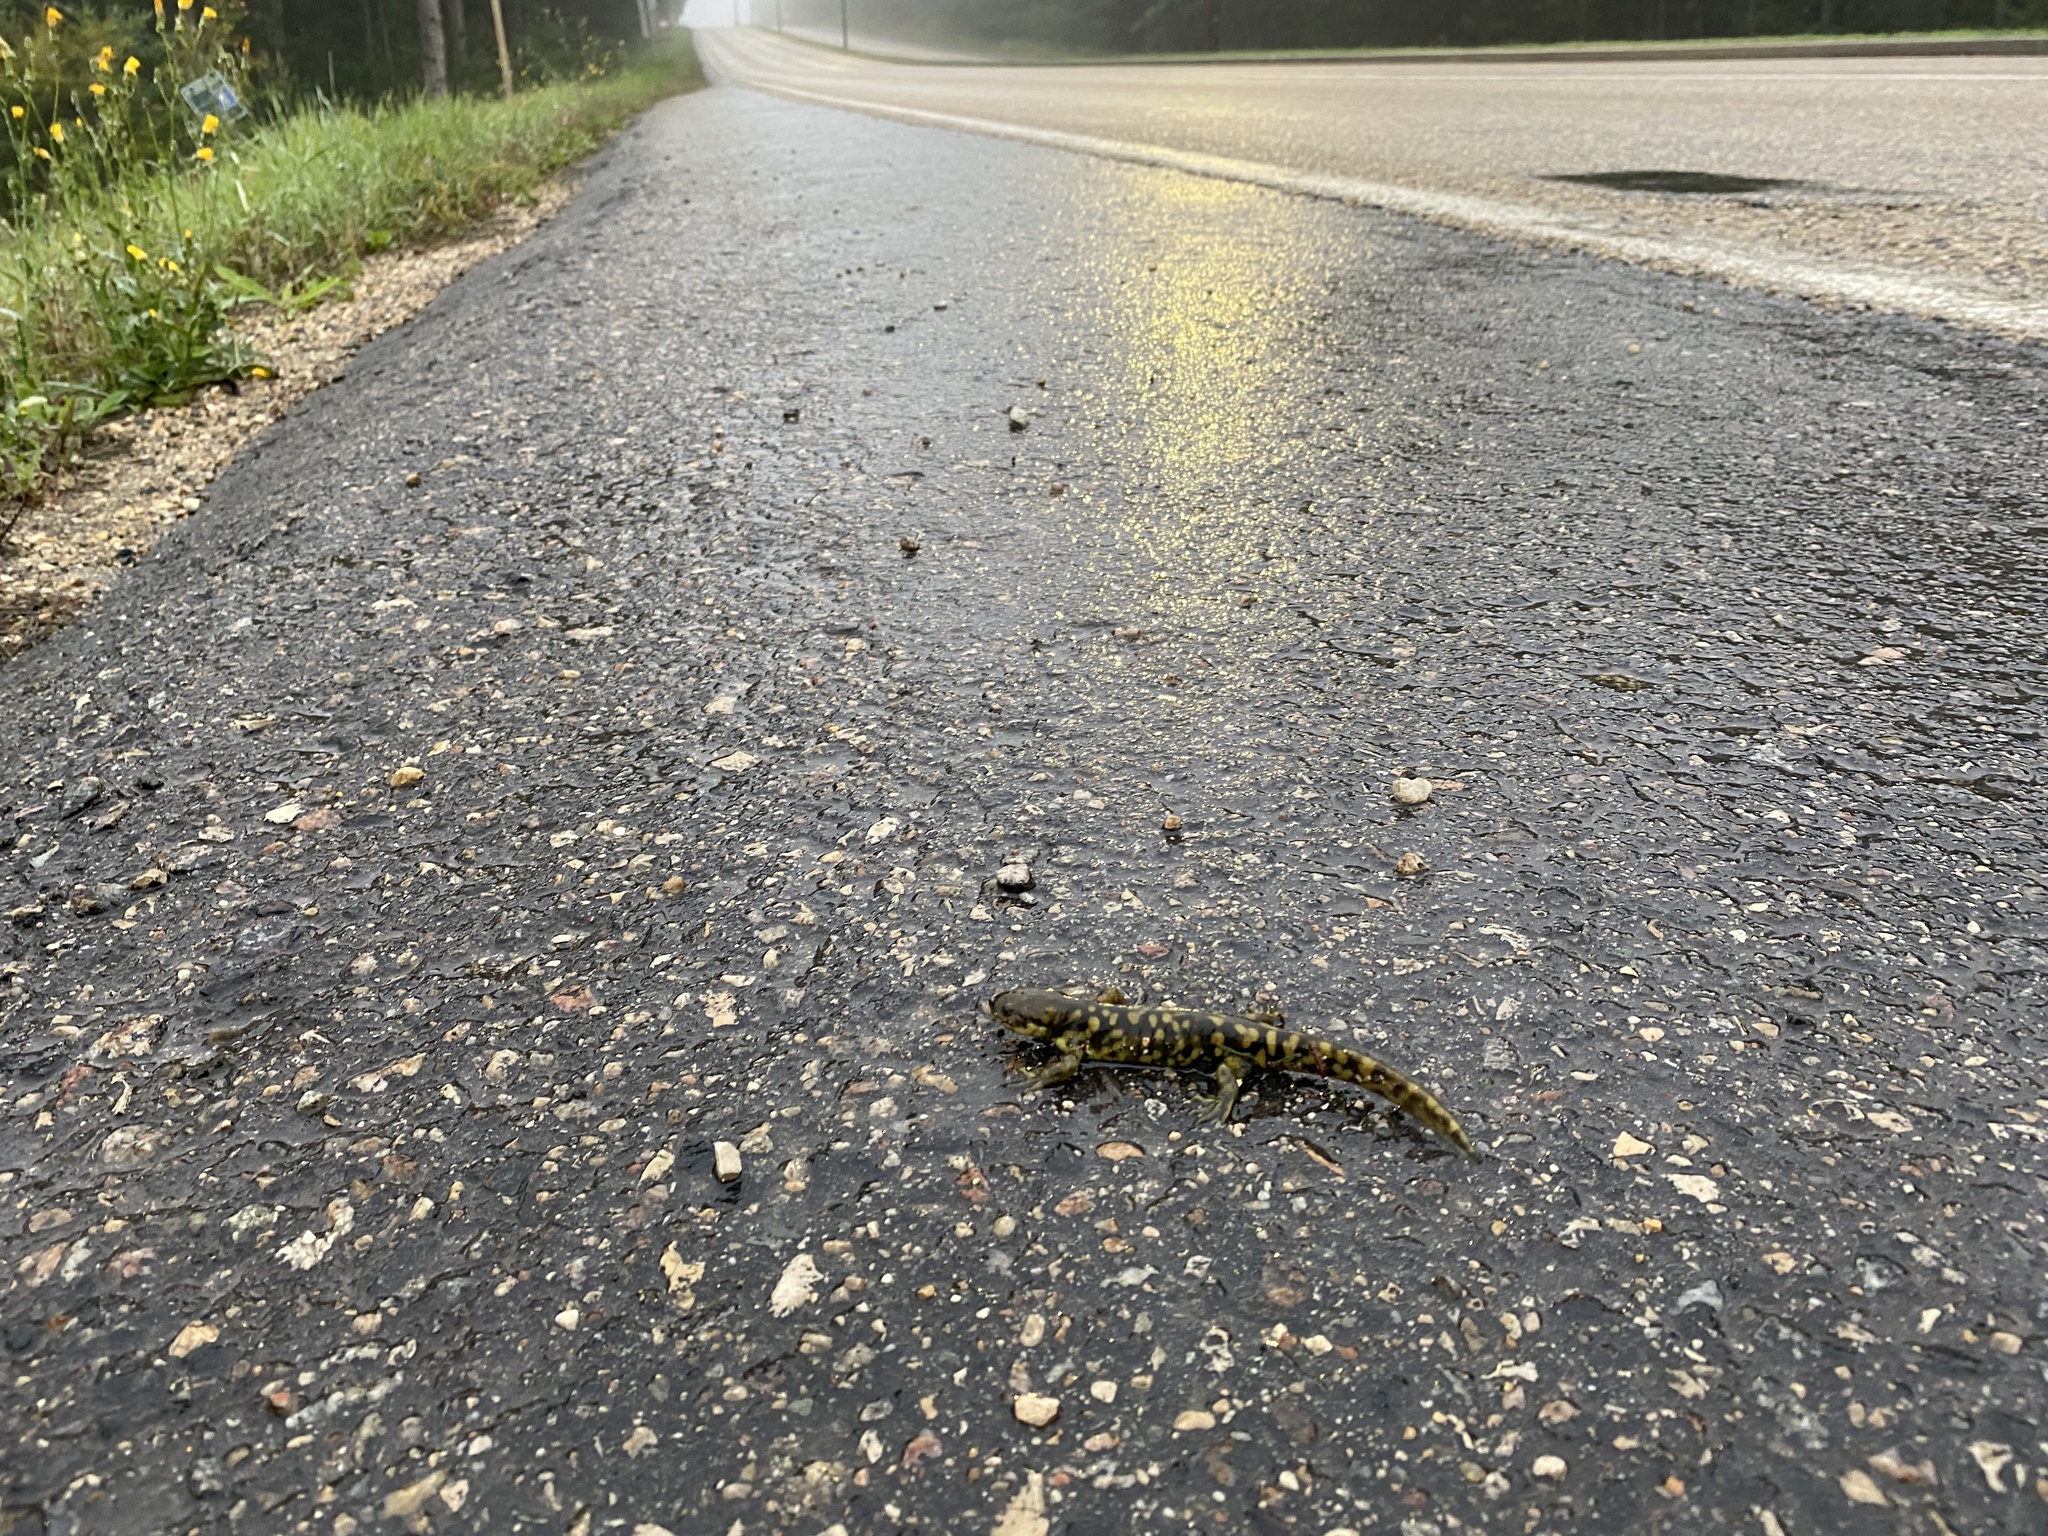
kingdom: Animalia
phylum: Chordata
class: Amphibia
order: Caudata
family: Ambystomatidae
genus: Ambystoma
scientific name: Ambystoma mavortium
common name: Western tiger salamander
